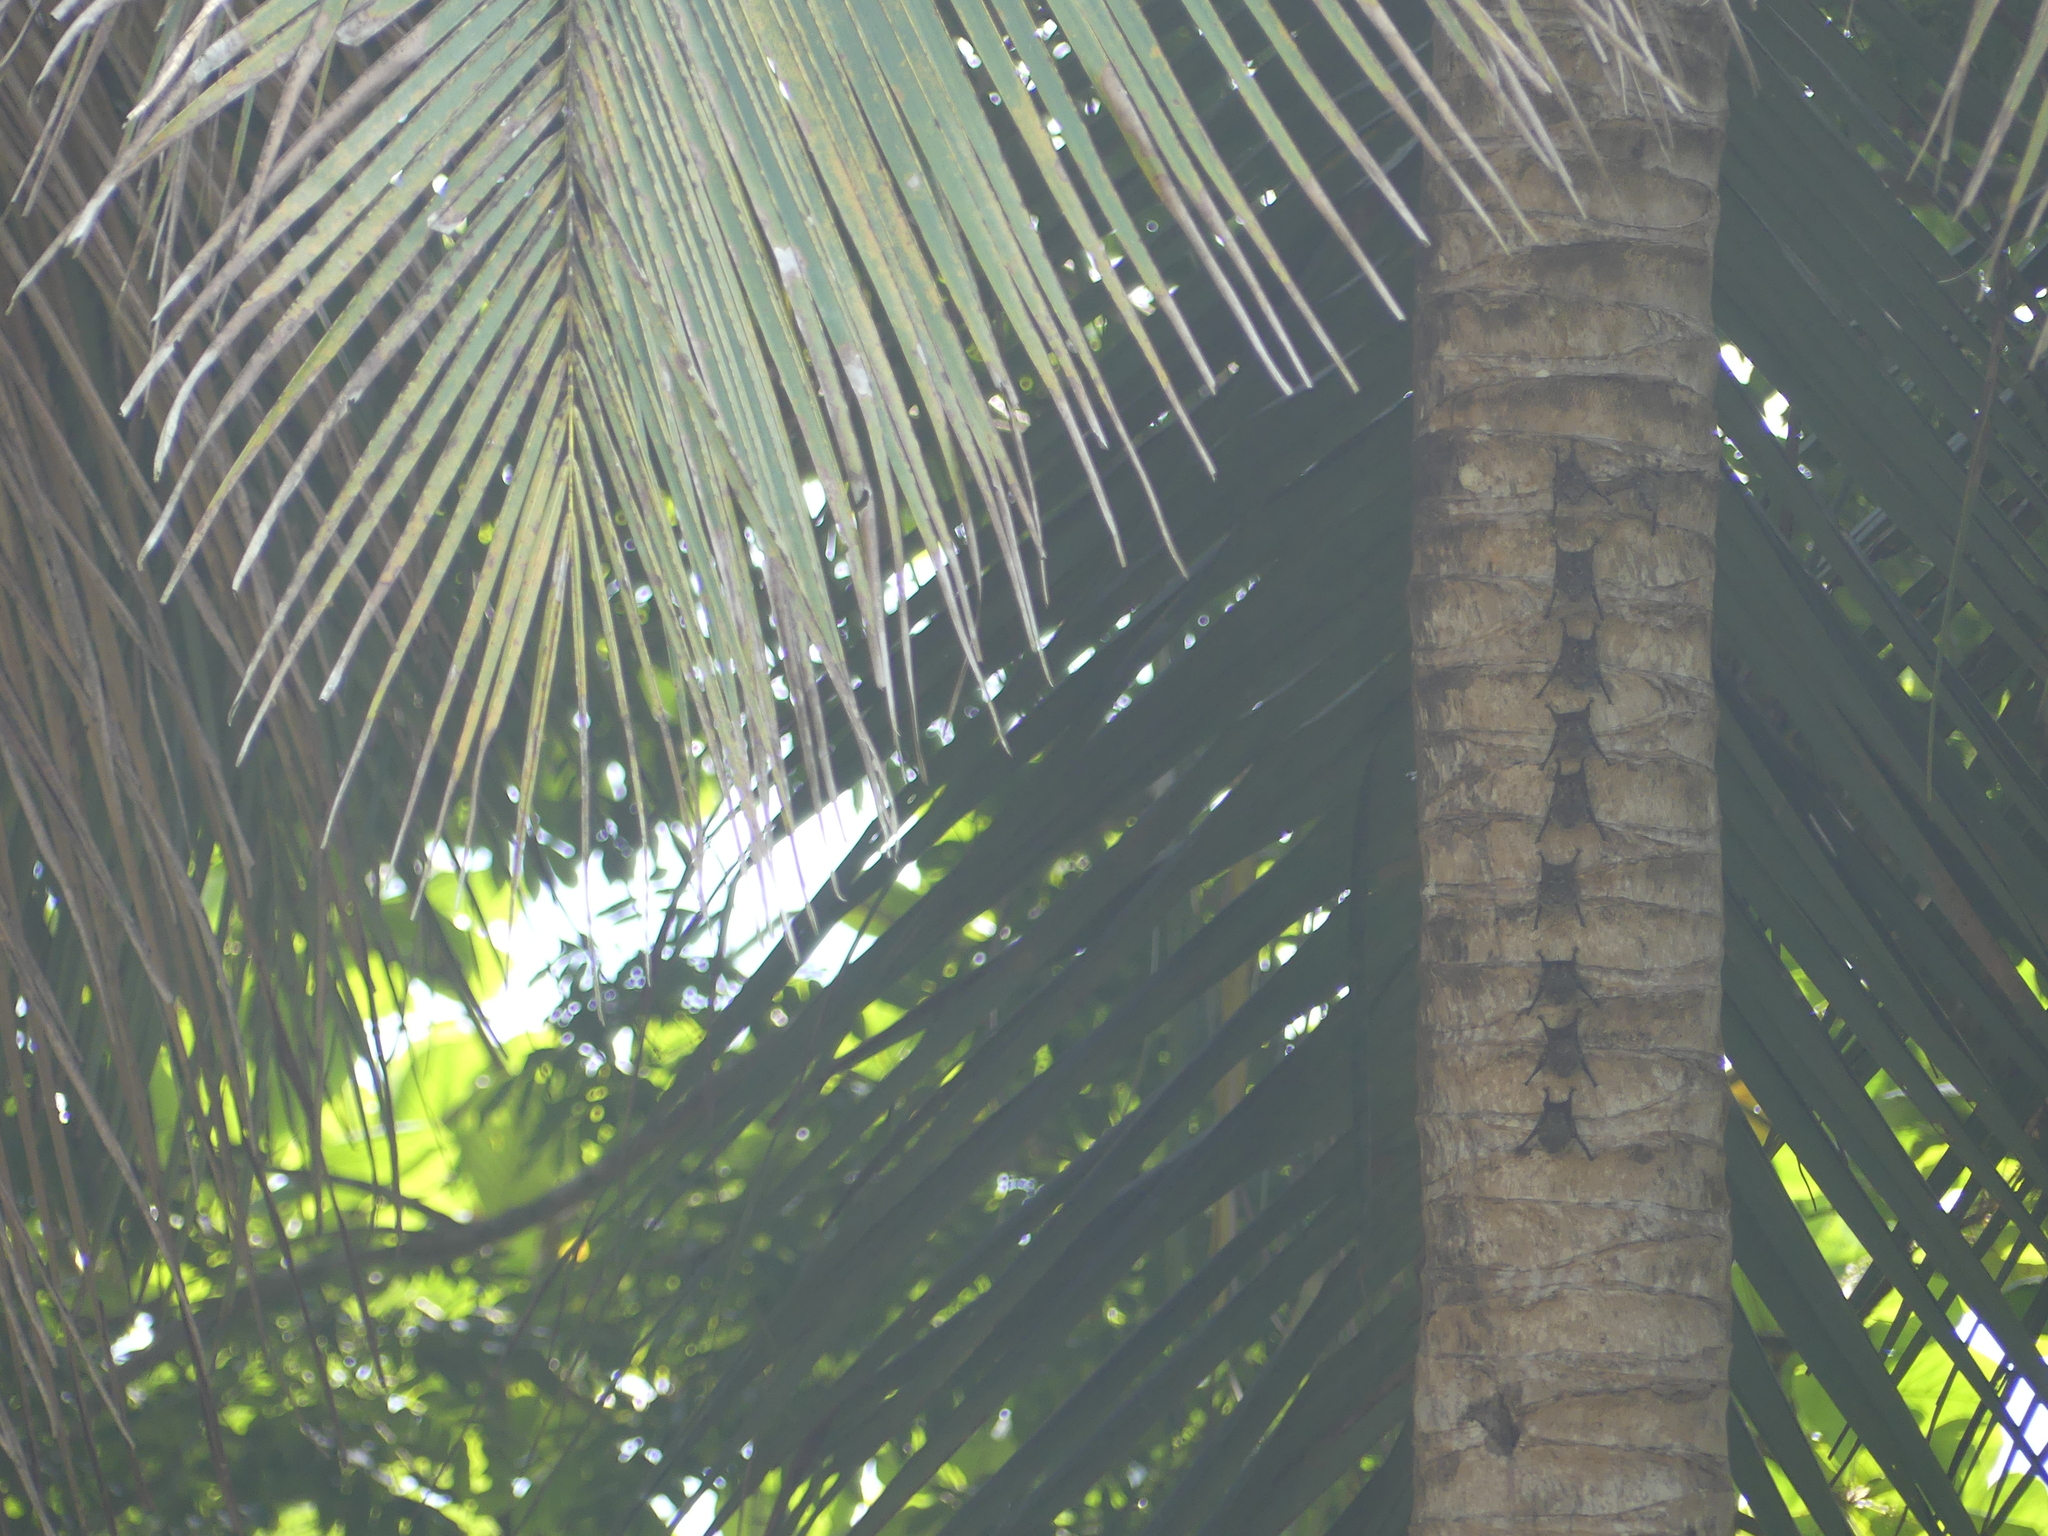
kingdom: Animalia
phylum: Chordata
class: Mammalia
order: Chiroptera
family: Emballonuridae
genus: Rhynchonycteris
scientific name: Rhynchonycteris naso
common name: Proboscis bat
